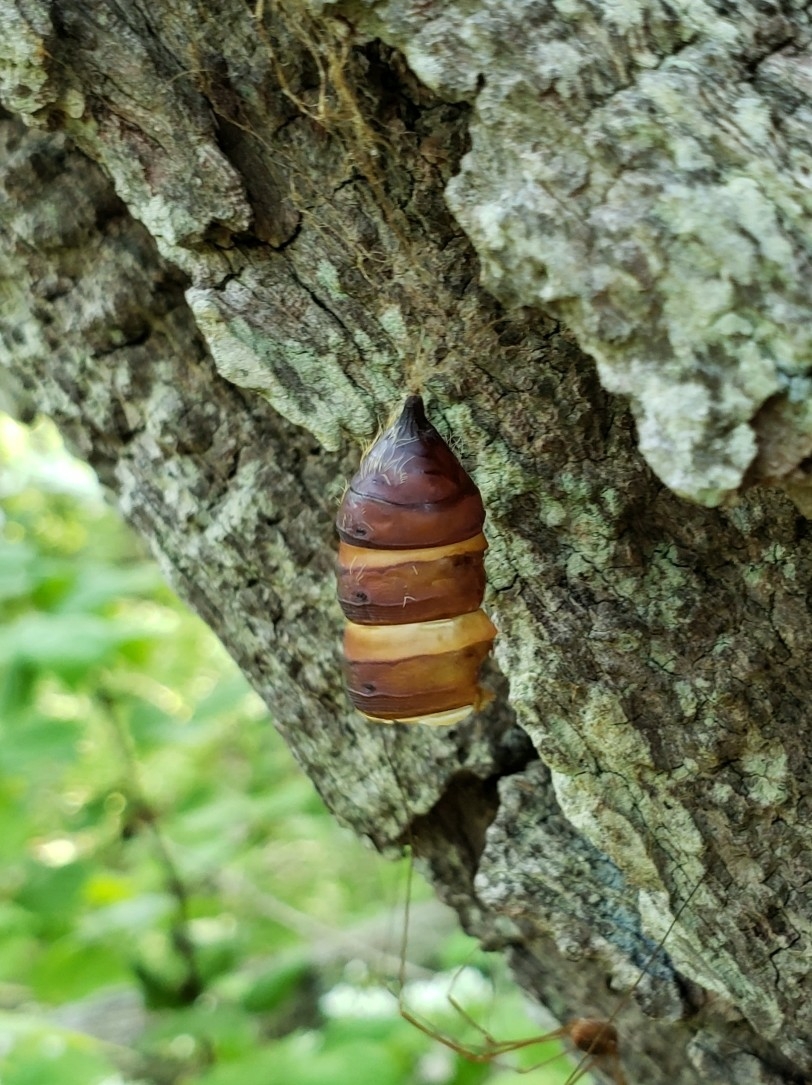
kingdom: Animalia
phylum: Arthropoda
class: Insecta
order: Lepidoptera
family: Erebidae
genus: Lymantria
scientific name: Lymantria dispar
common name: Gypsy moth
